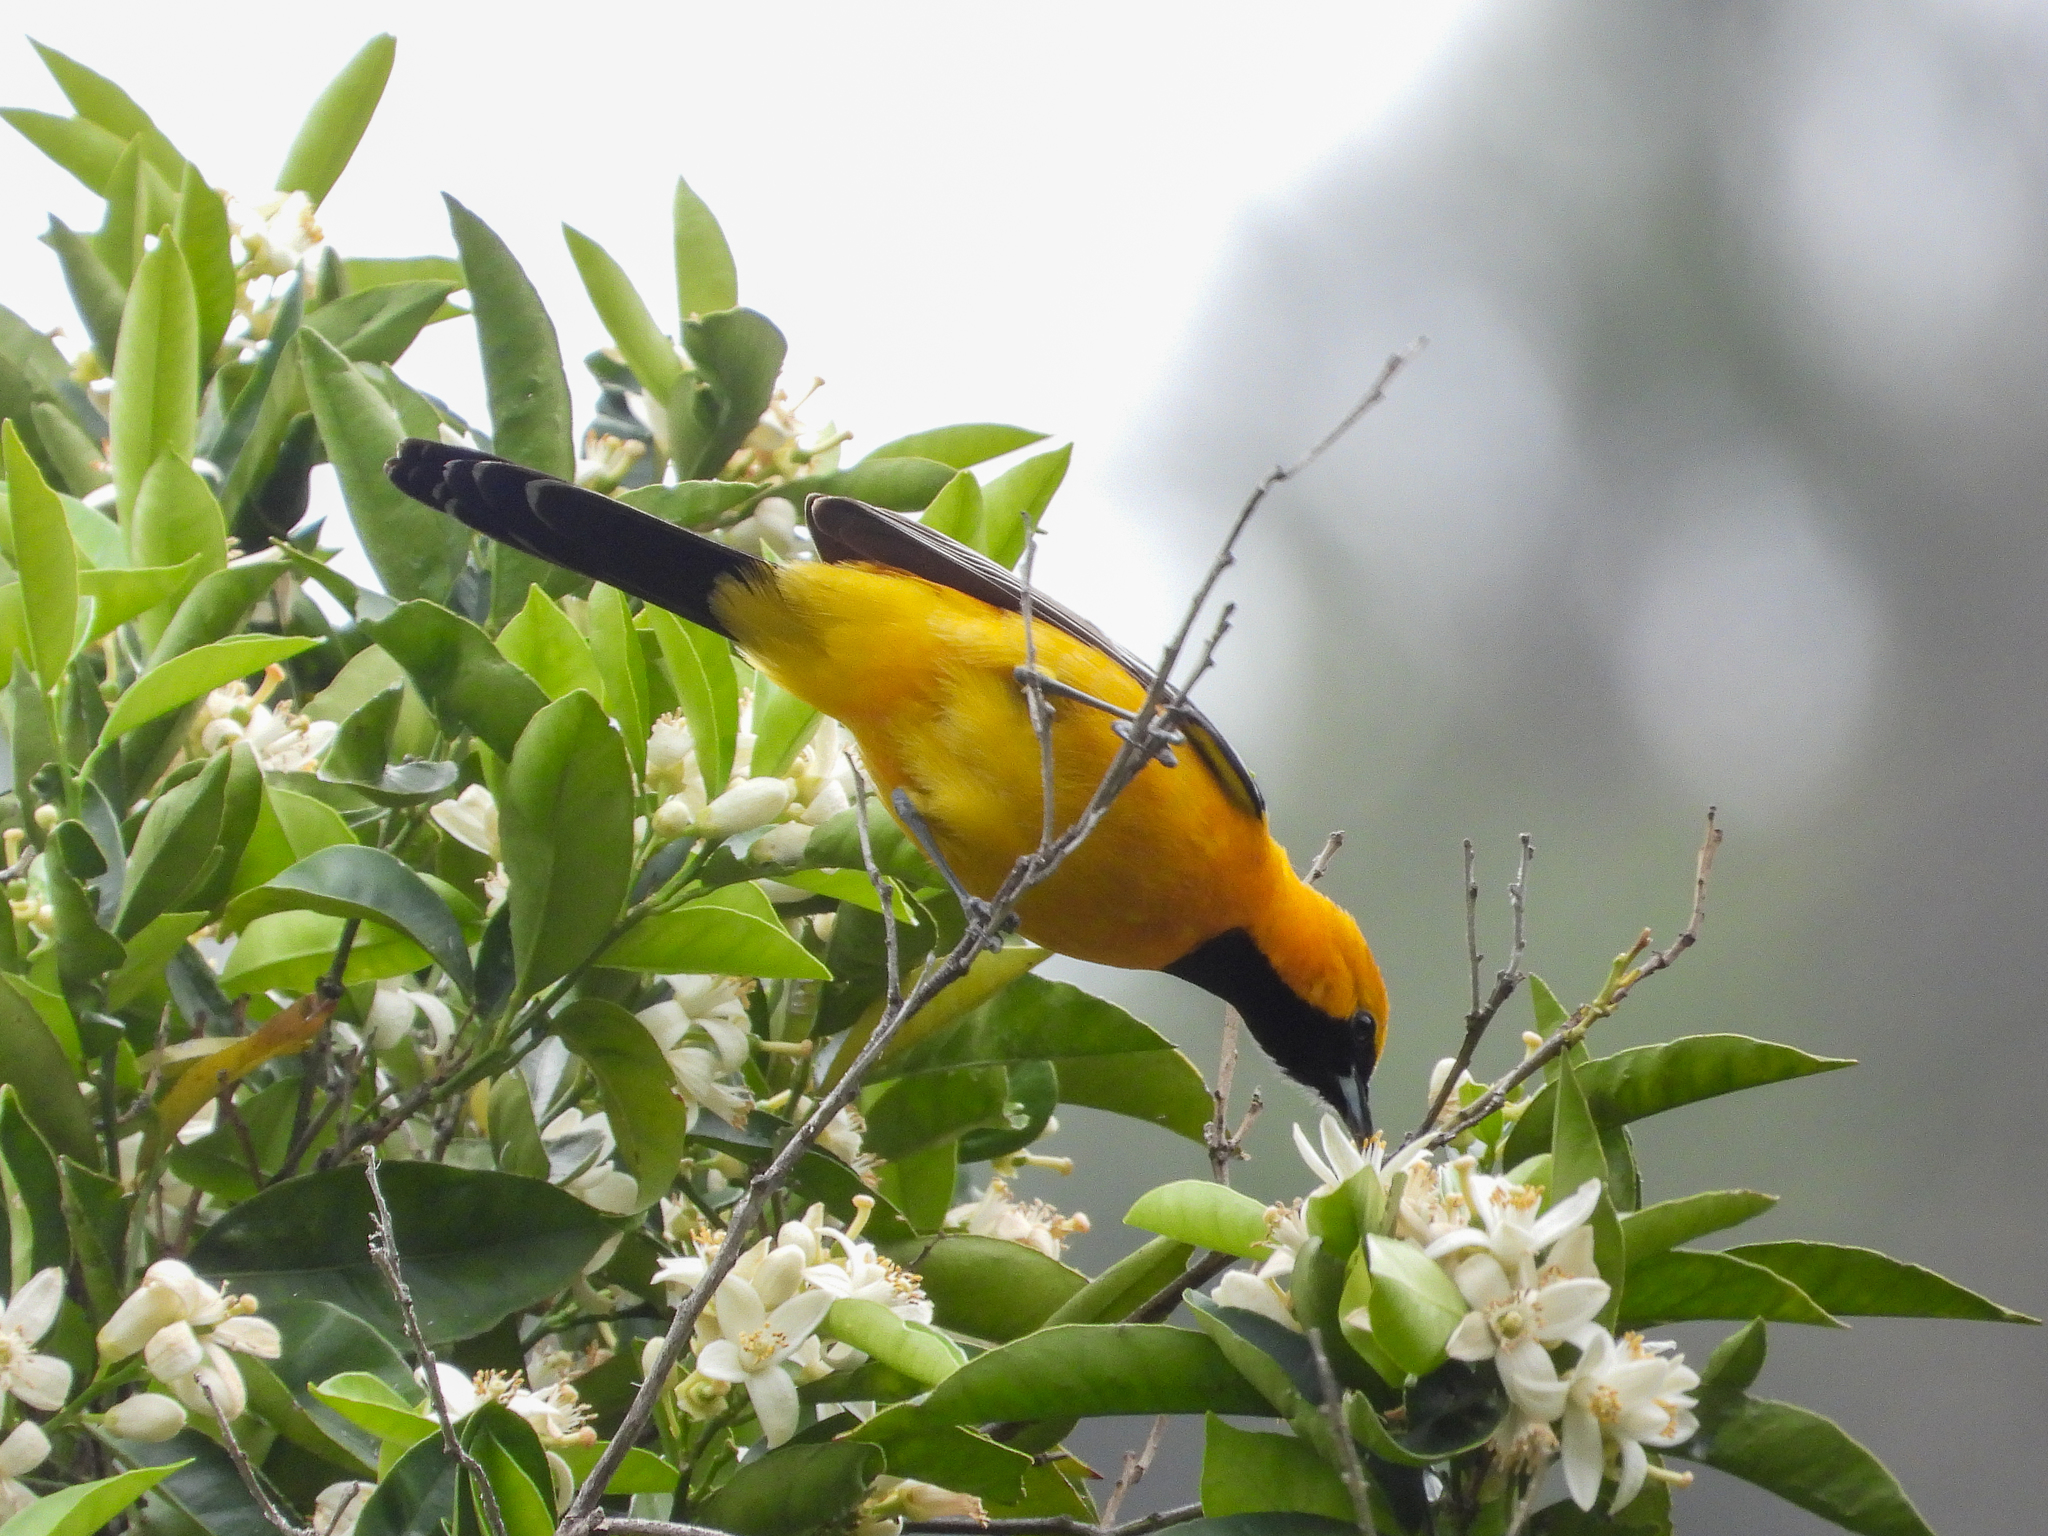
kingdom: Animalia
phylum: Chordata
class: Aves
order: Passeriformes
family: Icteridae
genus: Icterus
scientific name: Icterus cucullatus
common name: Hooded oriole
